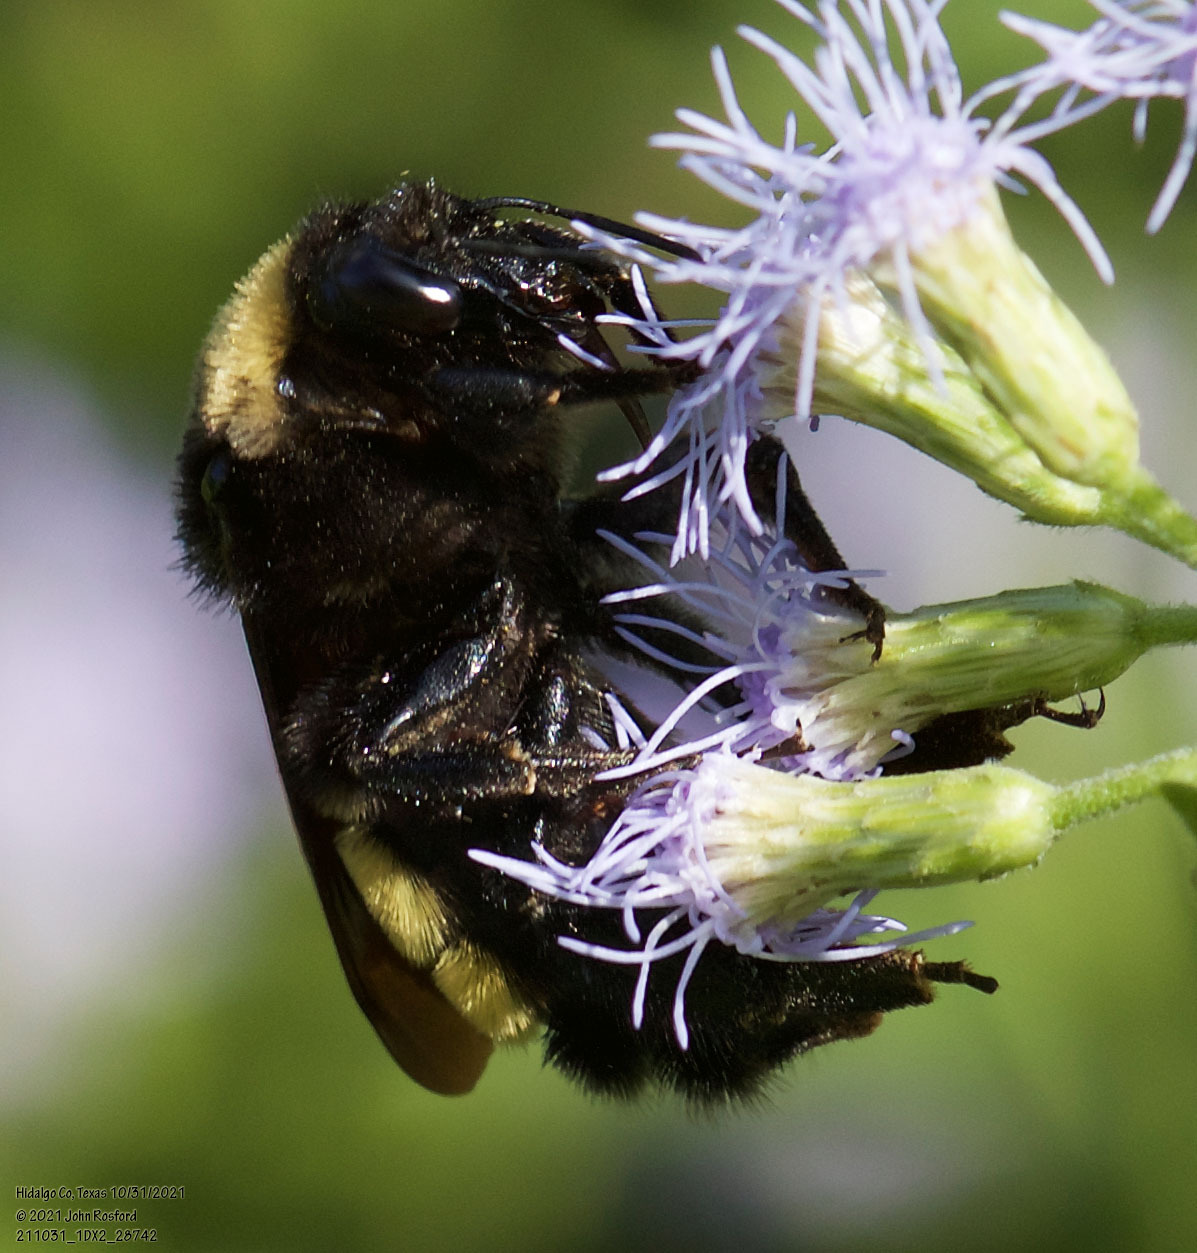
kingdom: Animalia
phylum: Arthropoda
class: Insecta
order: Hymenoptera
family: Apidae
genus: Bombus
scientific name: Bombus pensylvanicus
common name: Bumble bee
